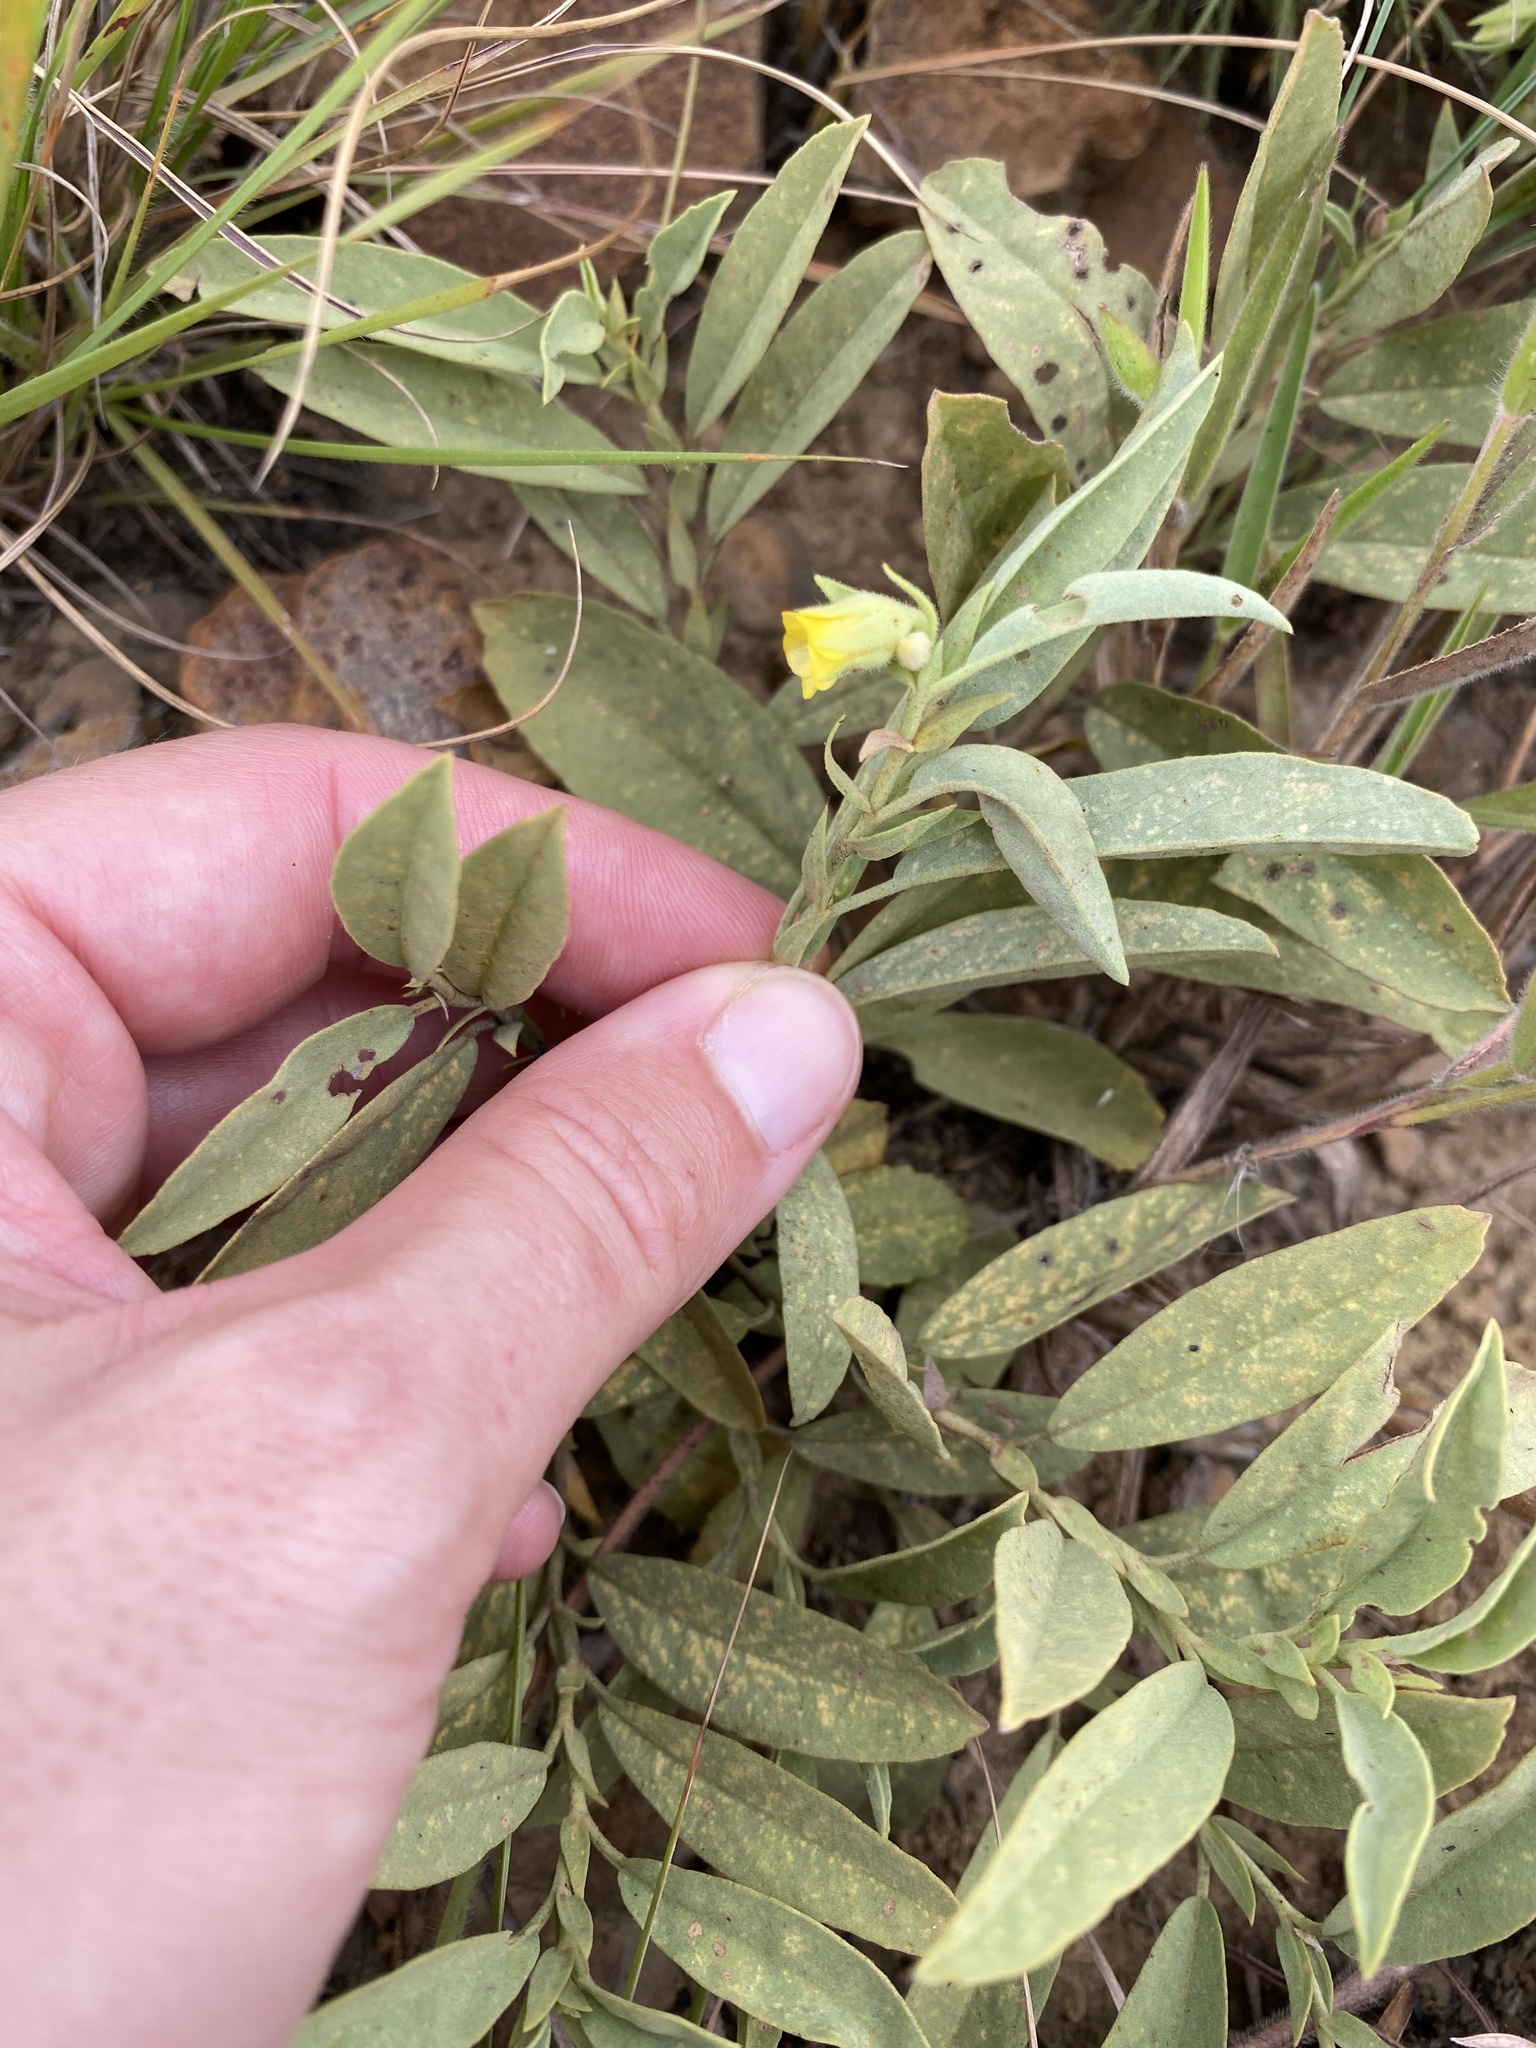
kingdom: Plantae
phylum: Tracheophyta
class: Magnoliopsida
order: Malvales
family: Malvaceae
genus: Hermannia
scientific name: Hermannia montana
